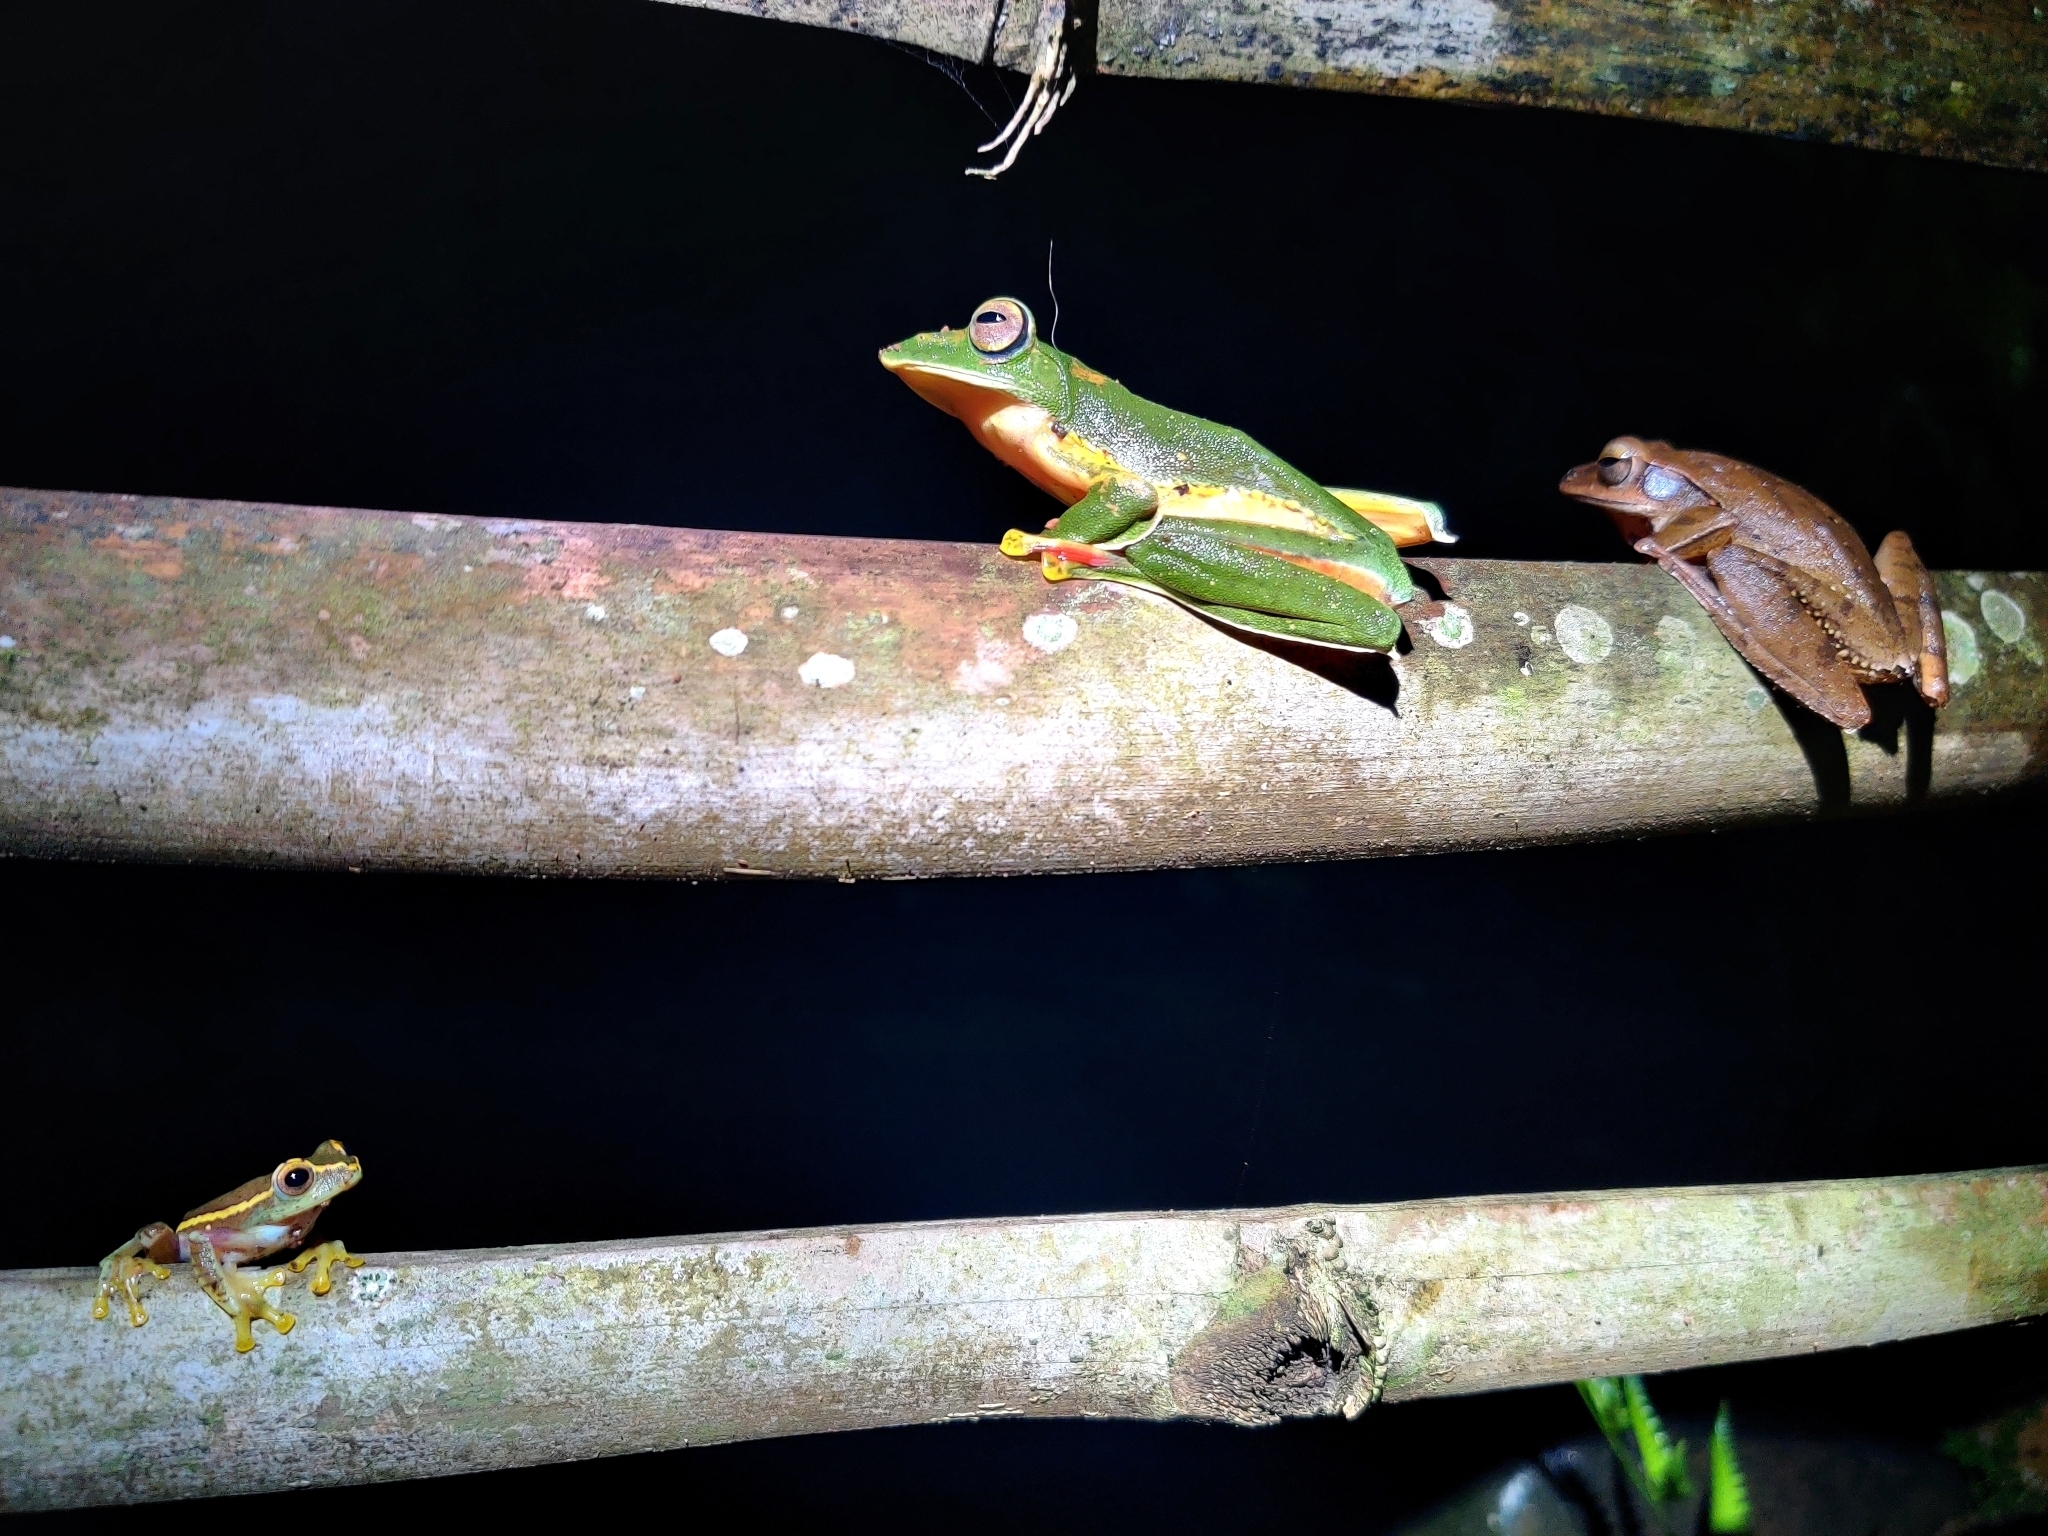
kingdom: Animalia
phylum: Chordata
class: Amphibia
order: Anura
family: Rhacophoridae
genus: Polypedates
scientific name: Polypedates occidentalis
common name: Charpa tree frog
